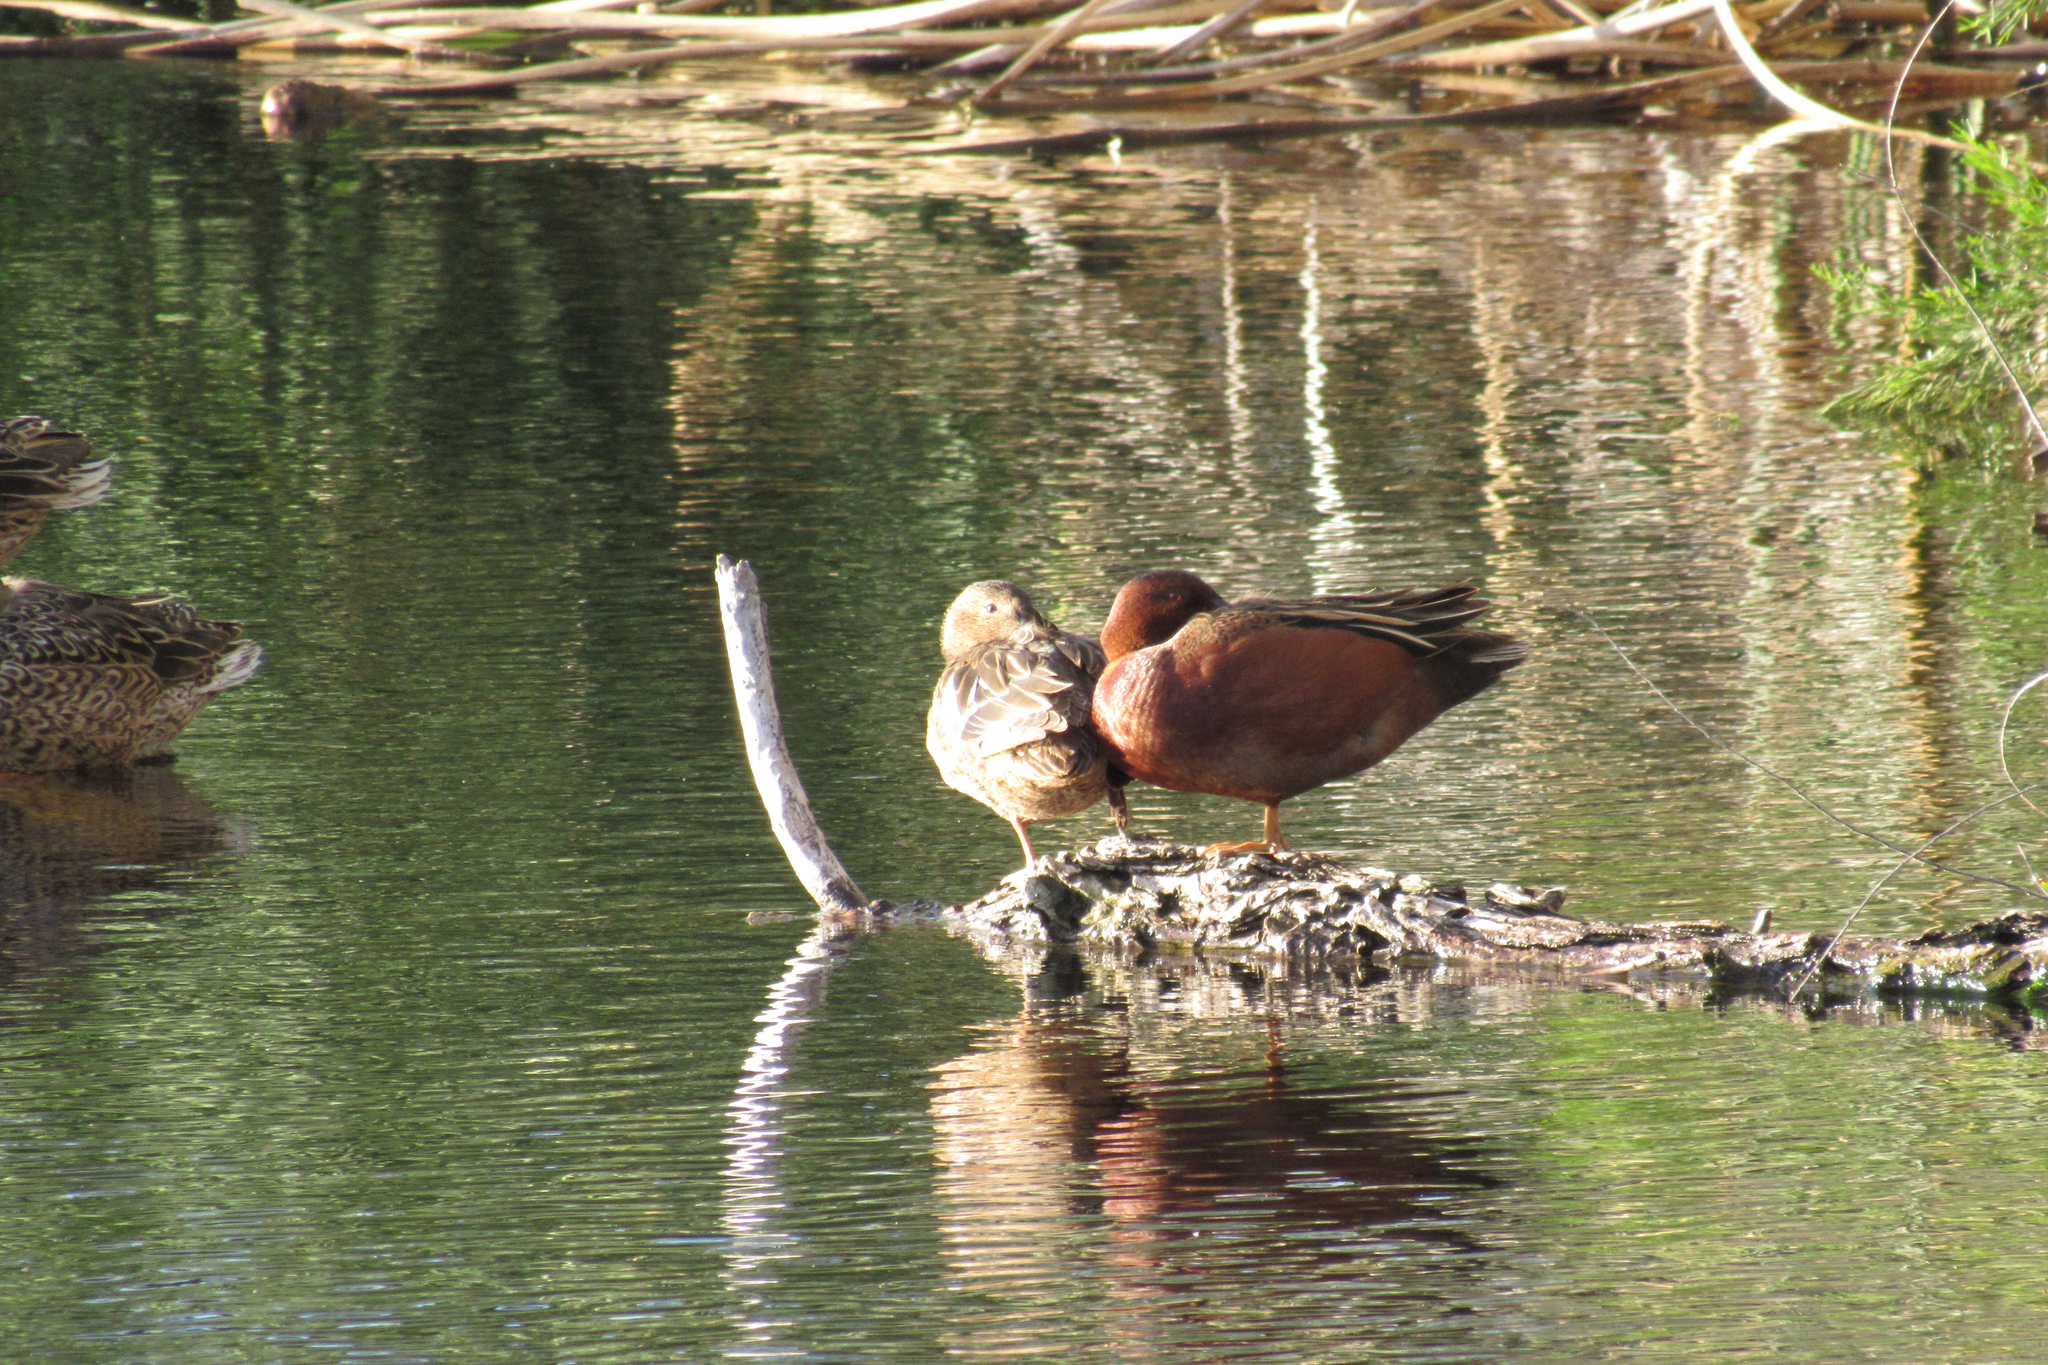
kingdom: Animalia
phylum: Chordata
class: Aves
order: Anseriformes
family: Anatidae
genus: Spatula
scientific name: Spatula cyanoptera
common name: Cinnamon teal
